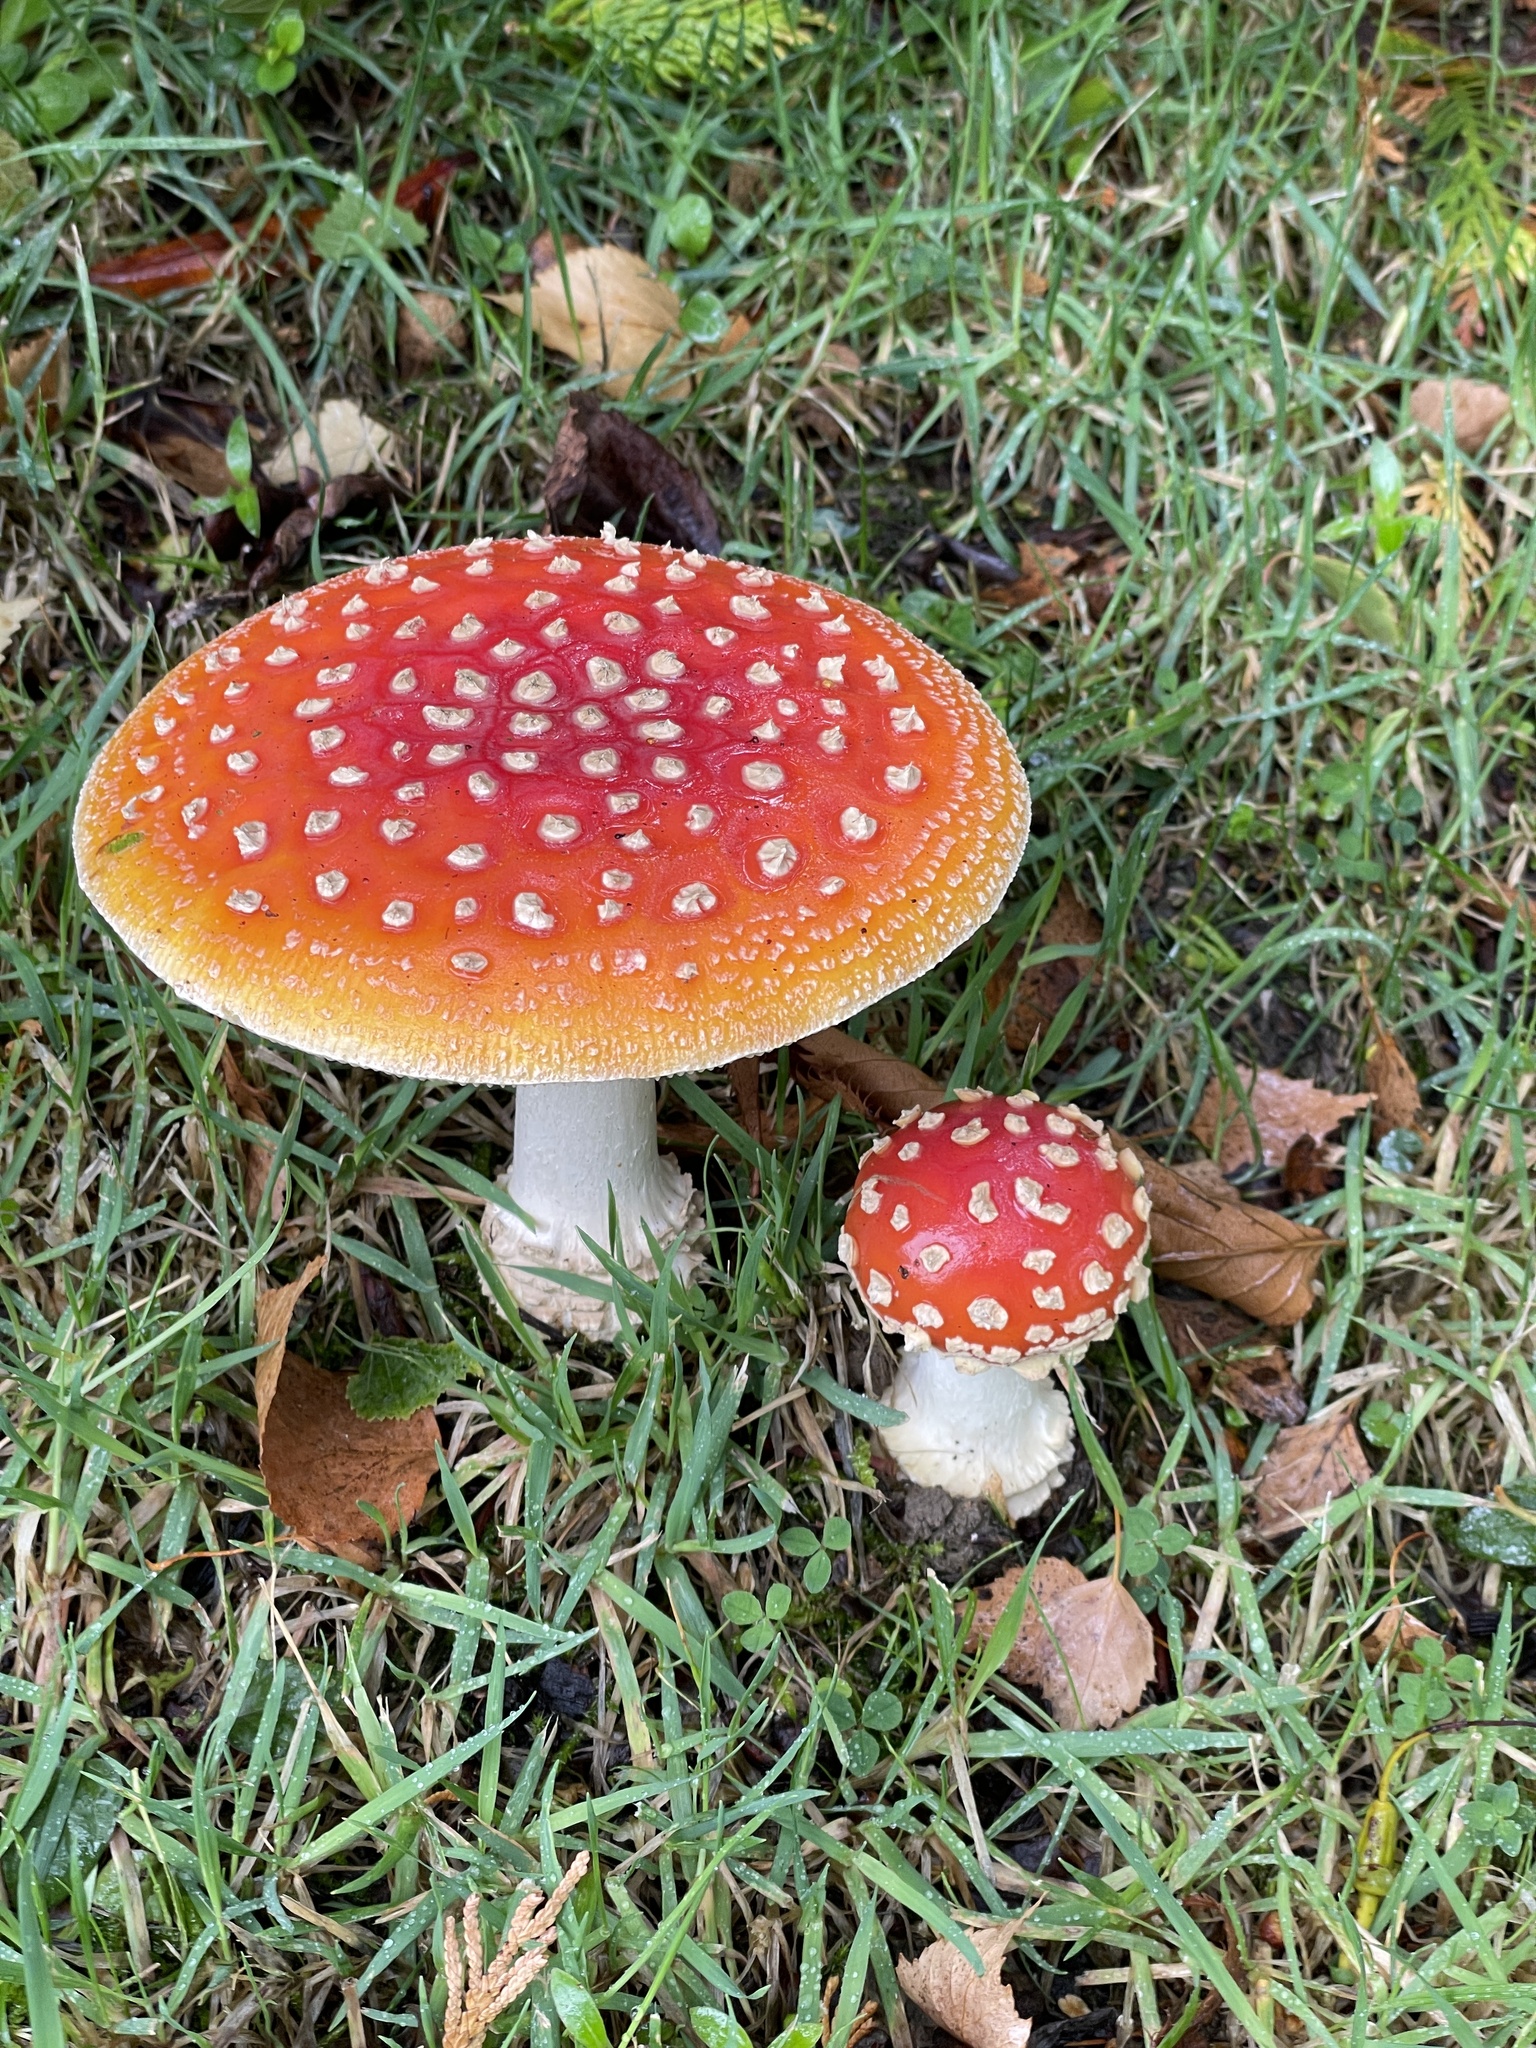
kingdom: Fungi
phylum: Basidiomycota
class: Agaricomycetes
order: Agaricales
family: Amanitaceae
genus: Amanita
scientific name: Amanita muscaria
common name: Fly agaric
